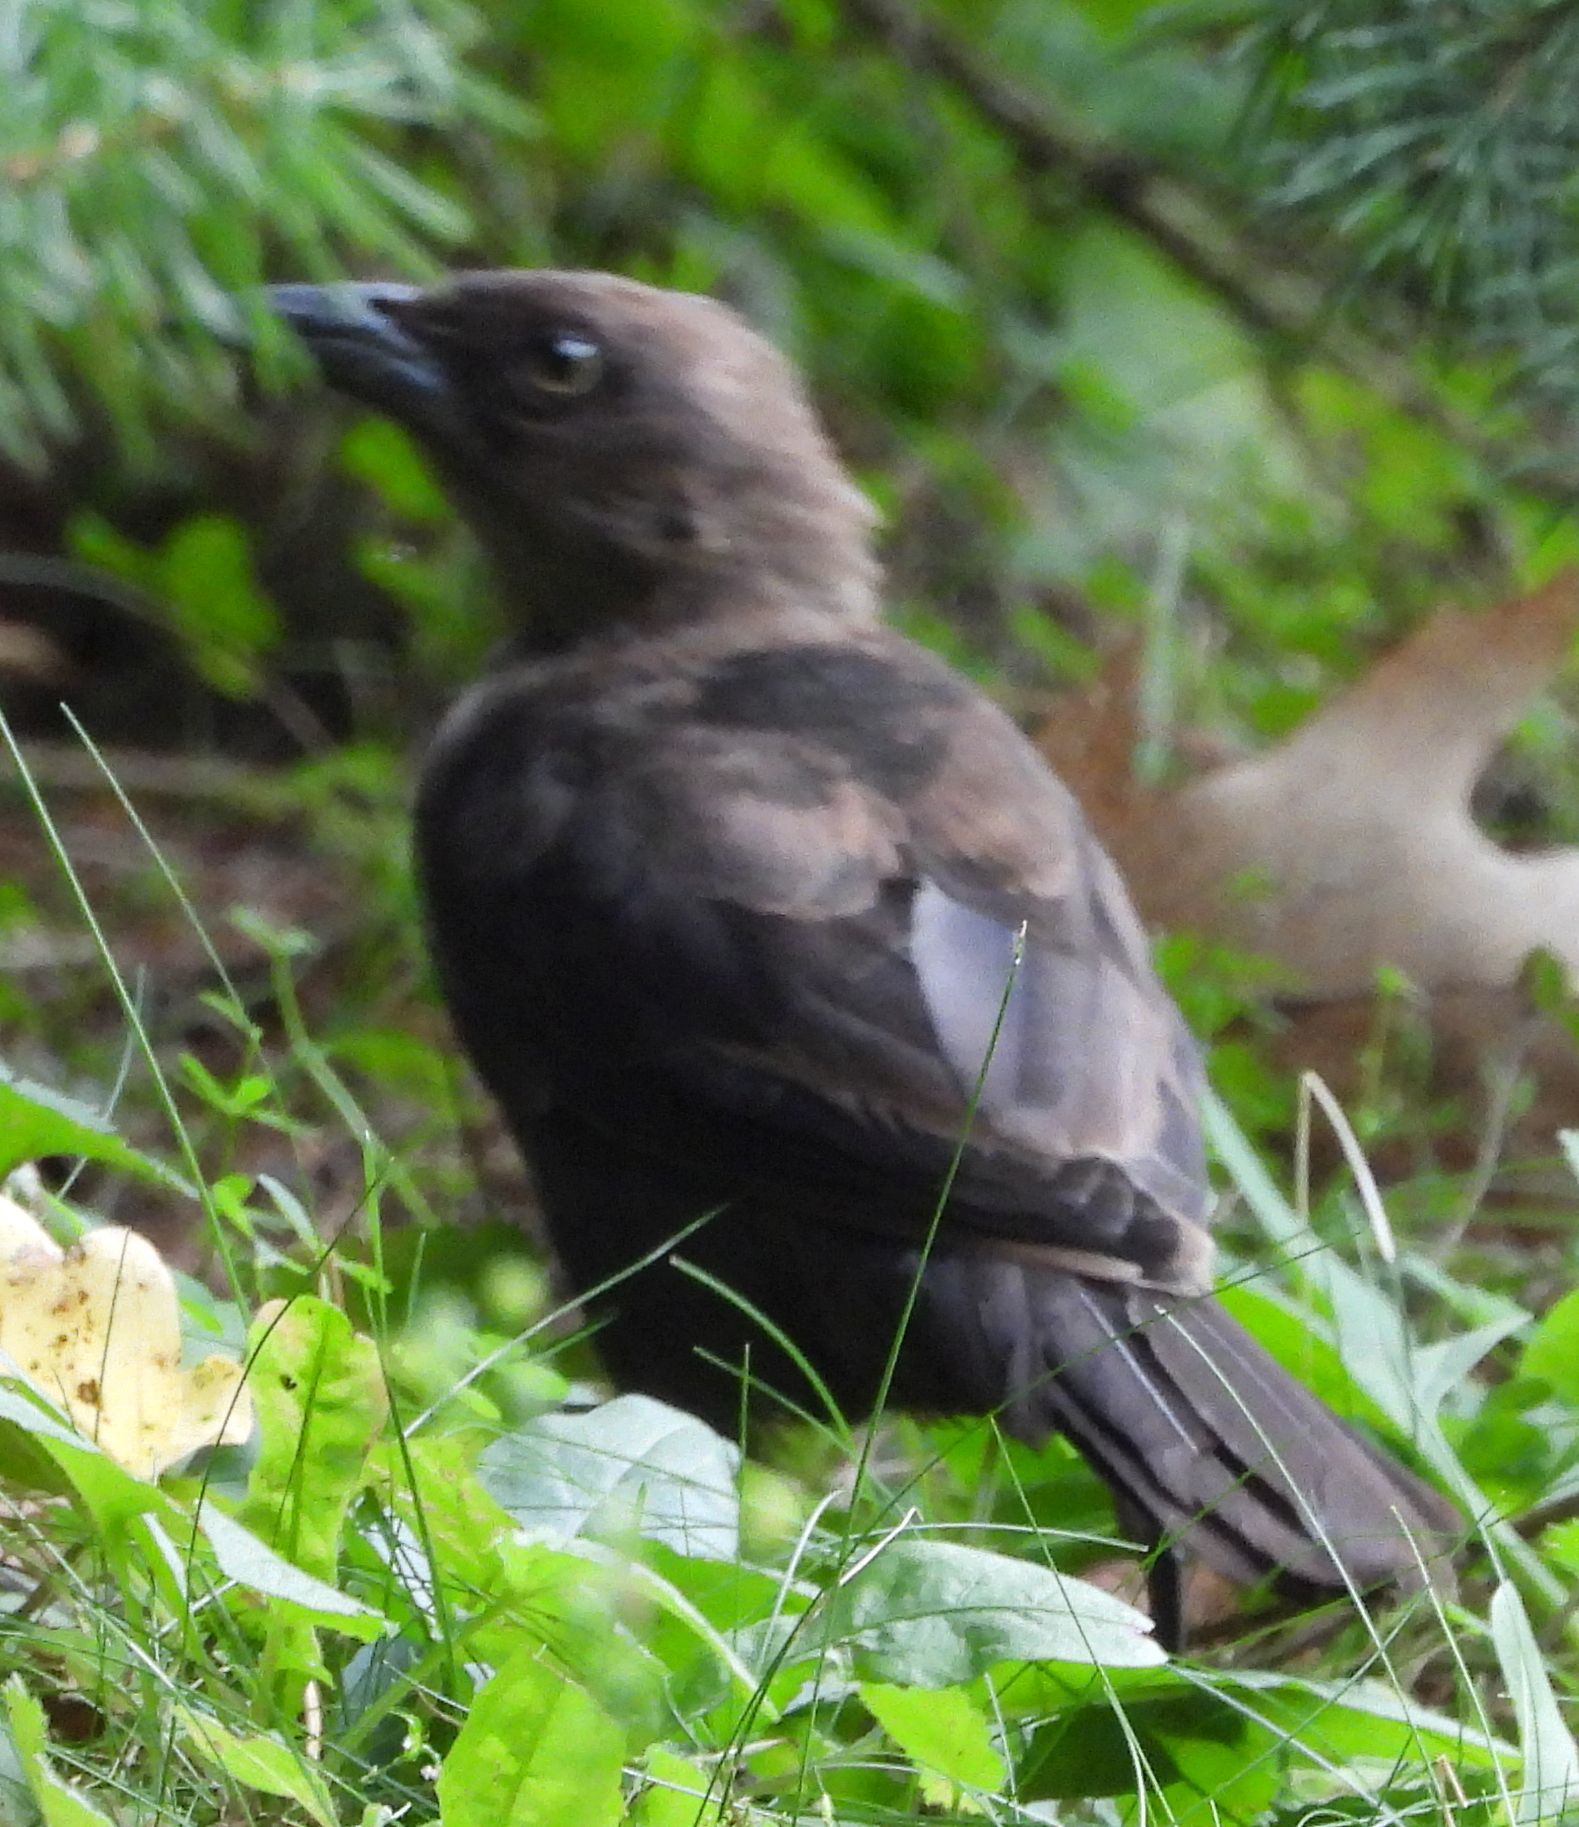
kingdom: Animalia
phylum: Chordata
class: Aves
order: Passeriformes
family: Icteridae
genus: Quiscalus
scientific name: Quiscalus quiscula
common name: Common grackle
